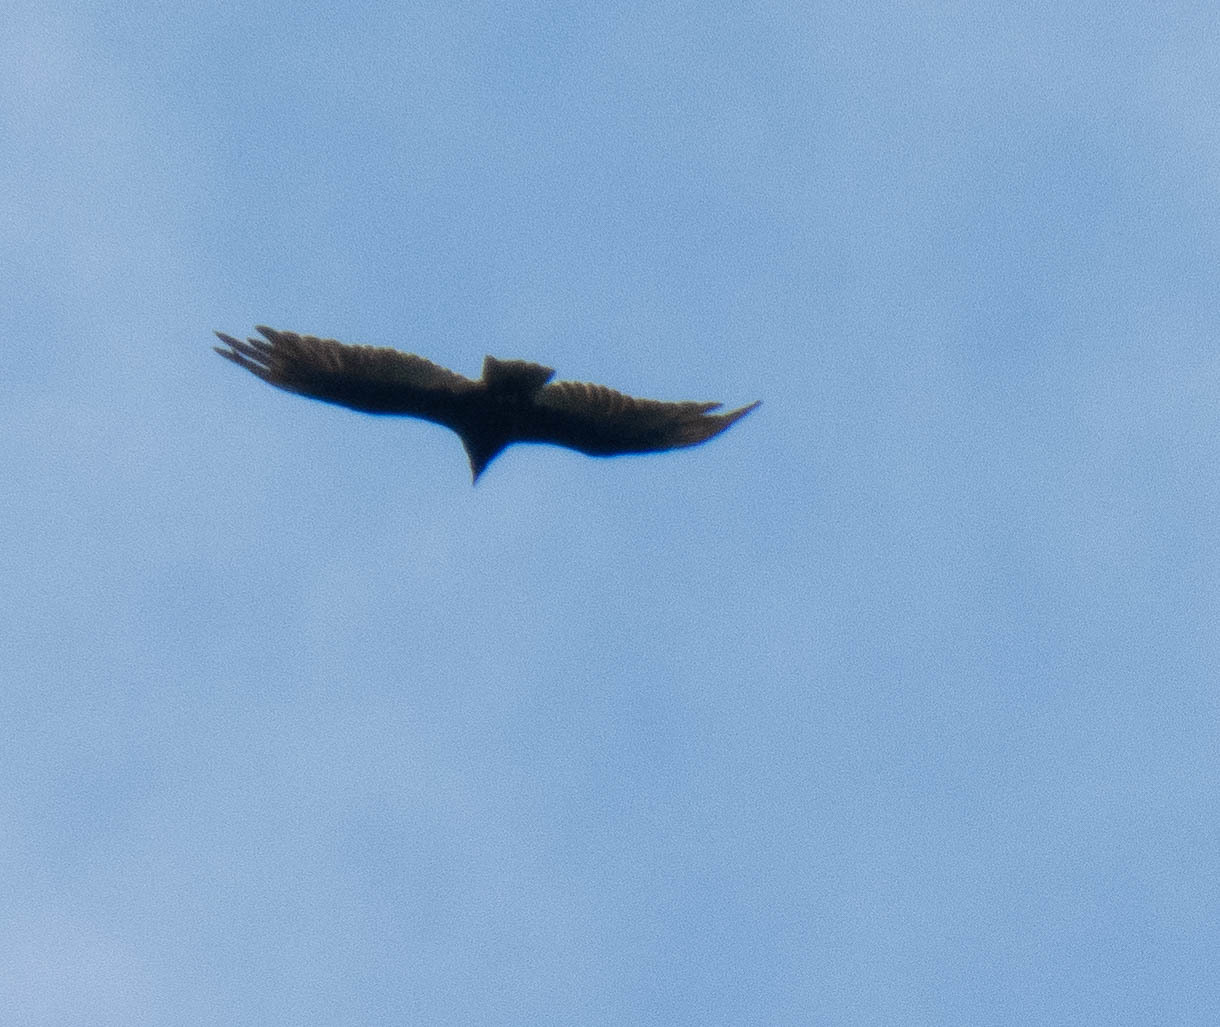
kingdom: Animalia
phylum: Chordata
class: Aves
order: Accipitriformes
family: Cathartidae
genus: Cathartes
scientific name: Cathartes aura
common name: Turkey vulture
